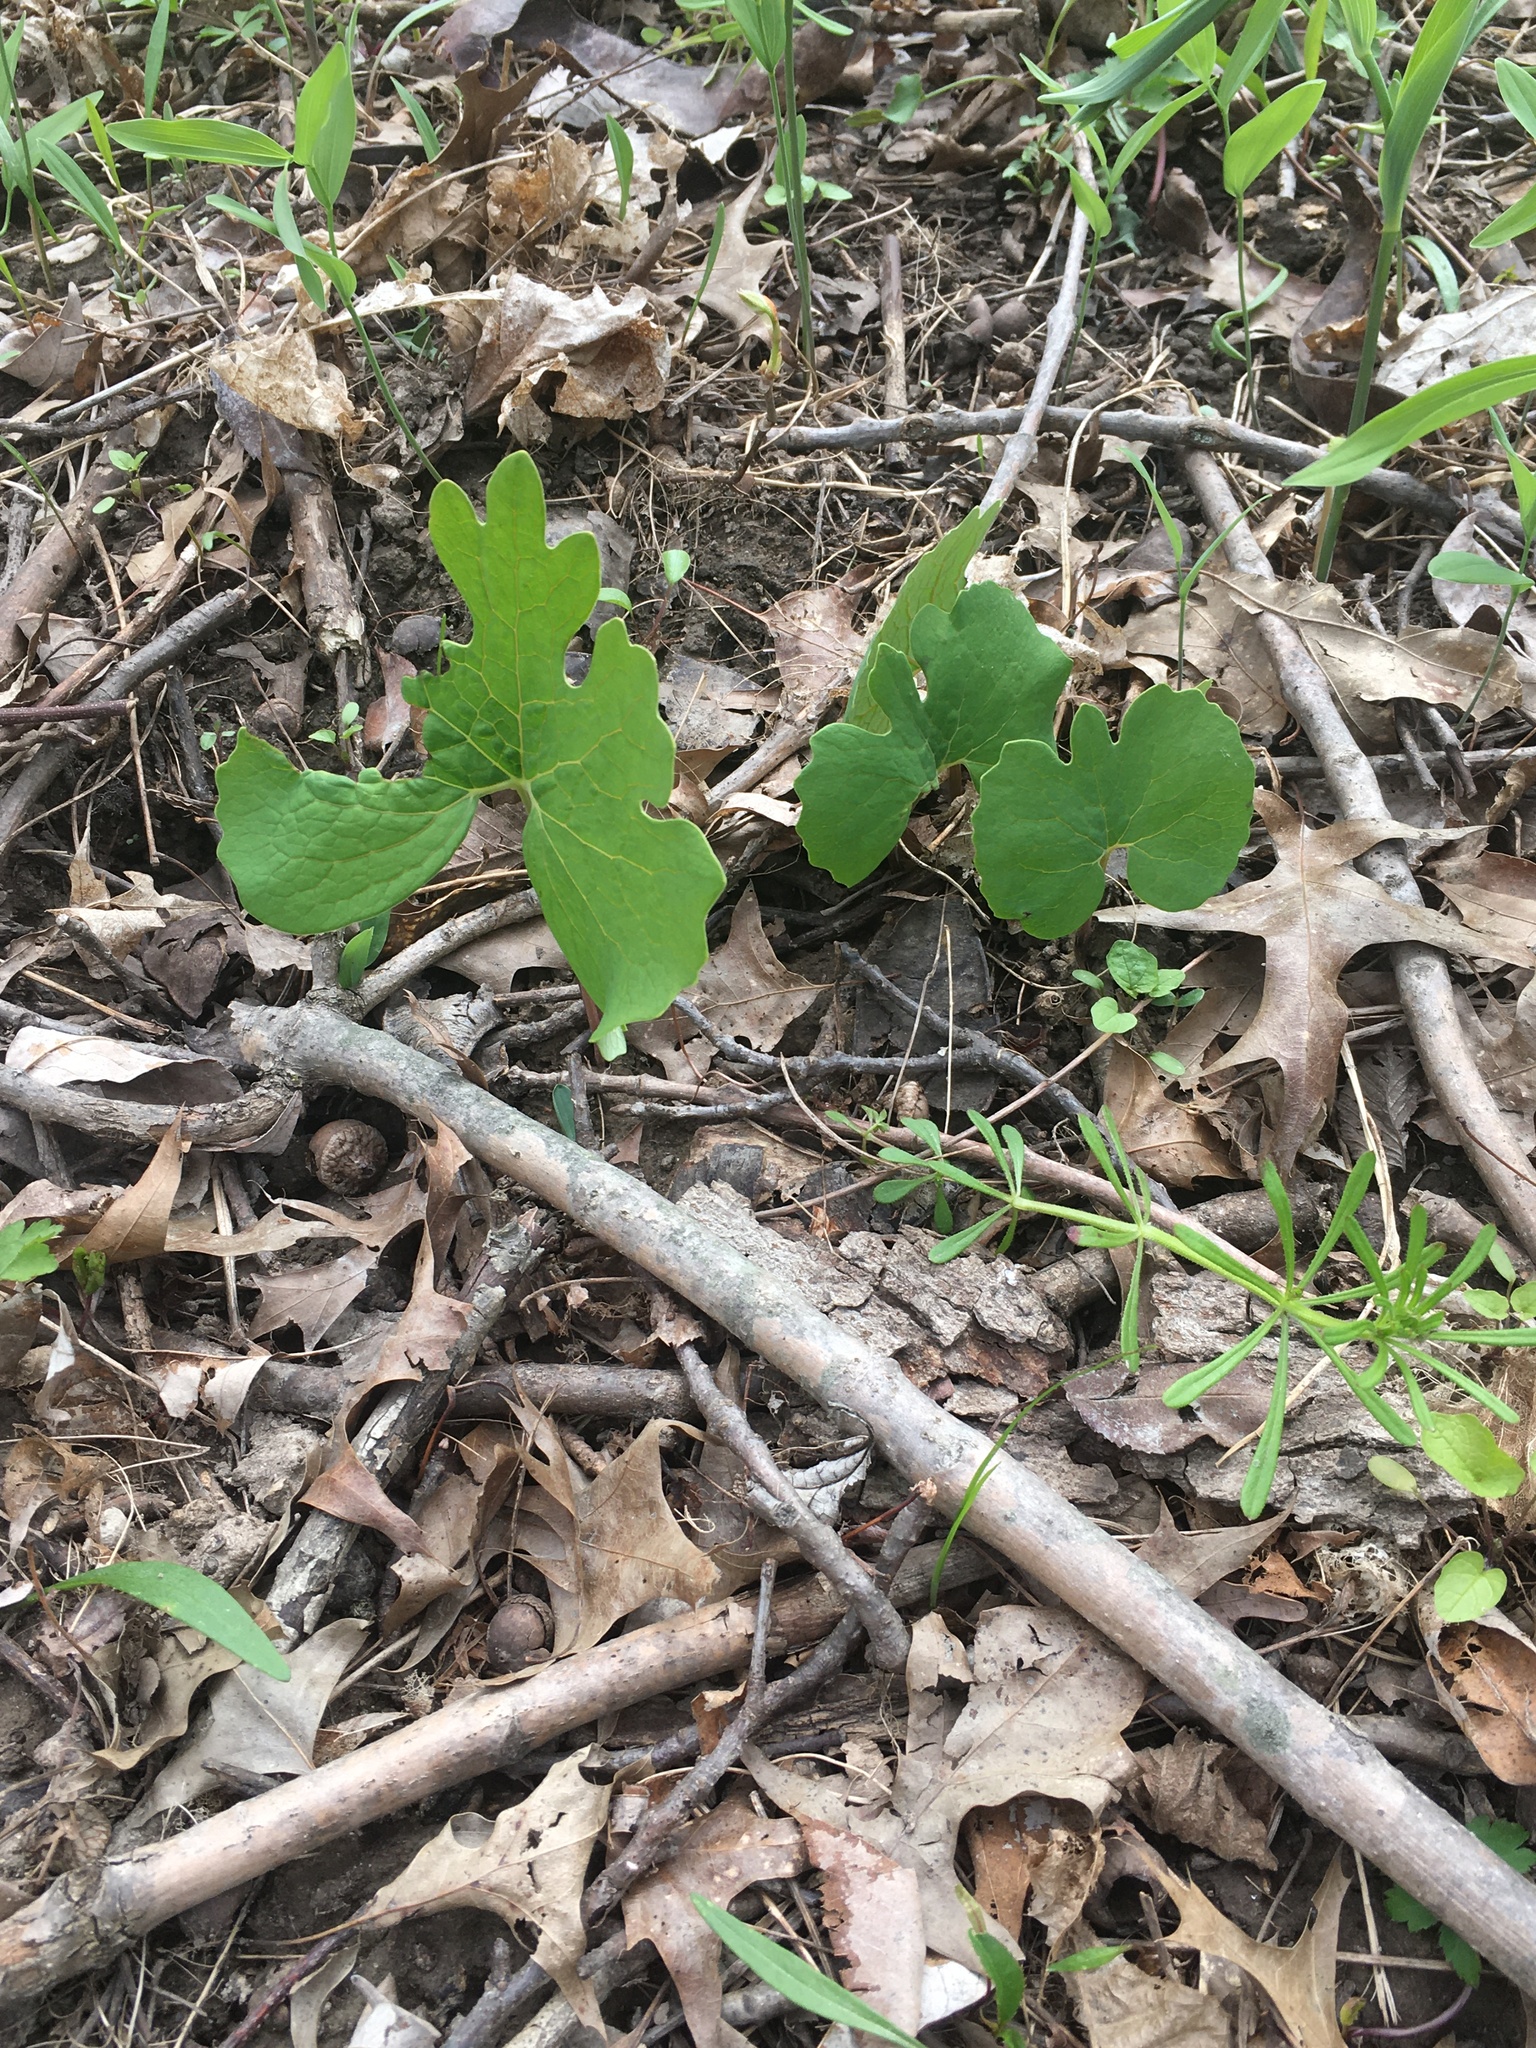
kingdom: Plantae
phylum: Tracheophyta
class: Magnoliopsida
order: Ranunculales
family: Papaveraceae
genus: Sanguinaria
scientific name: Sanguinaria canadensis
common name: Bloodroot
